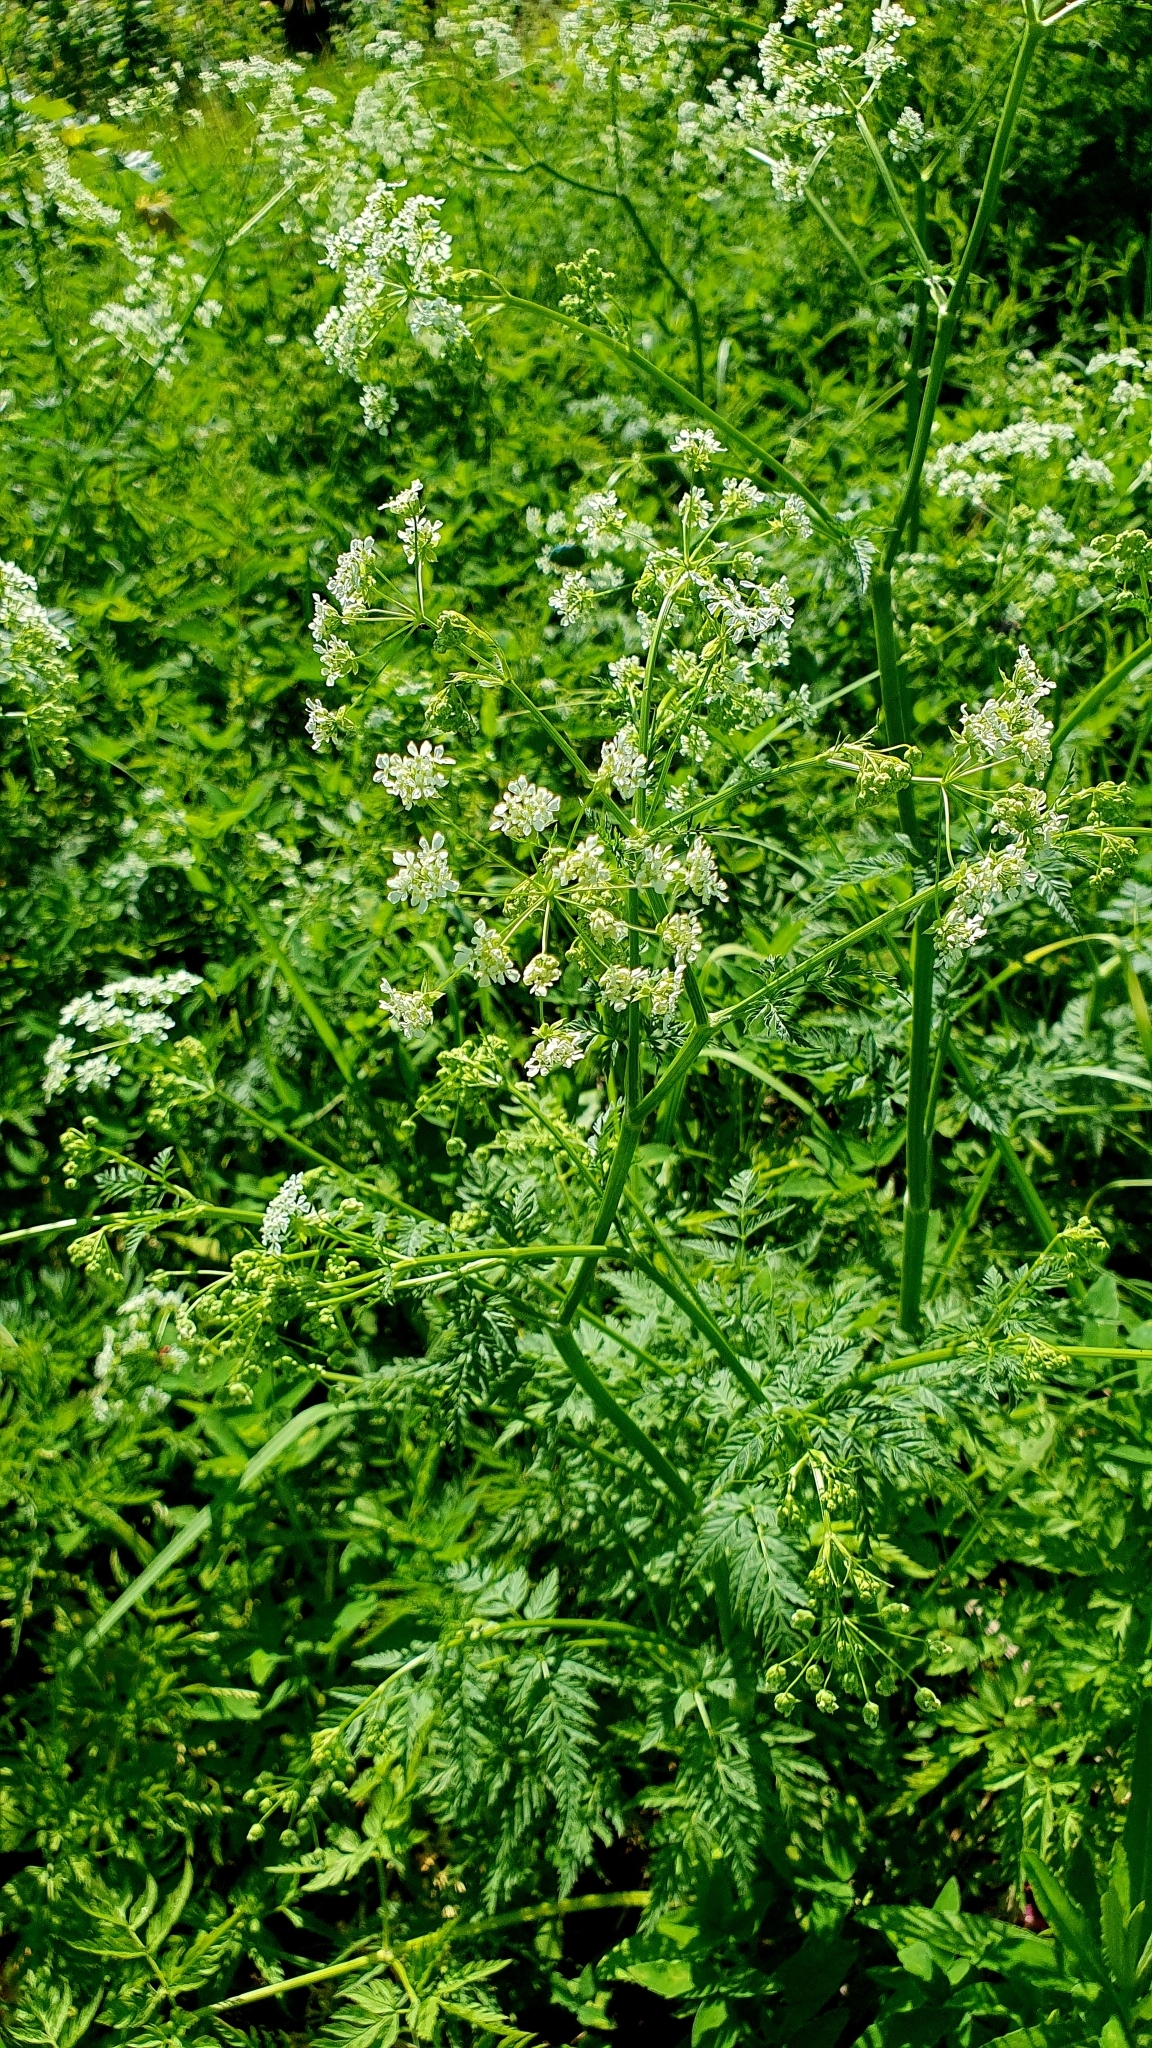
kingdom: Plantae
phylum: Tracheophyta
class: Magnoliopsida
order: Apiales
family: Apiaceae
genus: Anthriscus
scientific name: Anthriscus sylvestris
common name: Cow parsley
